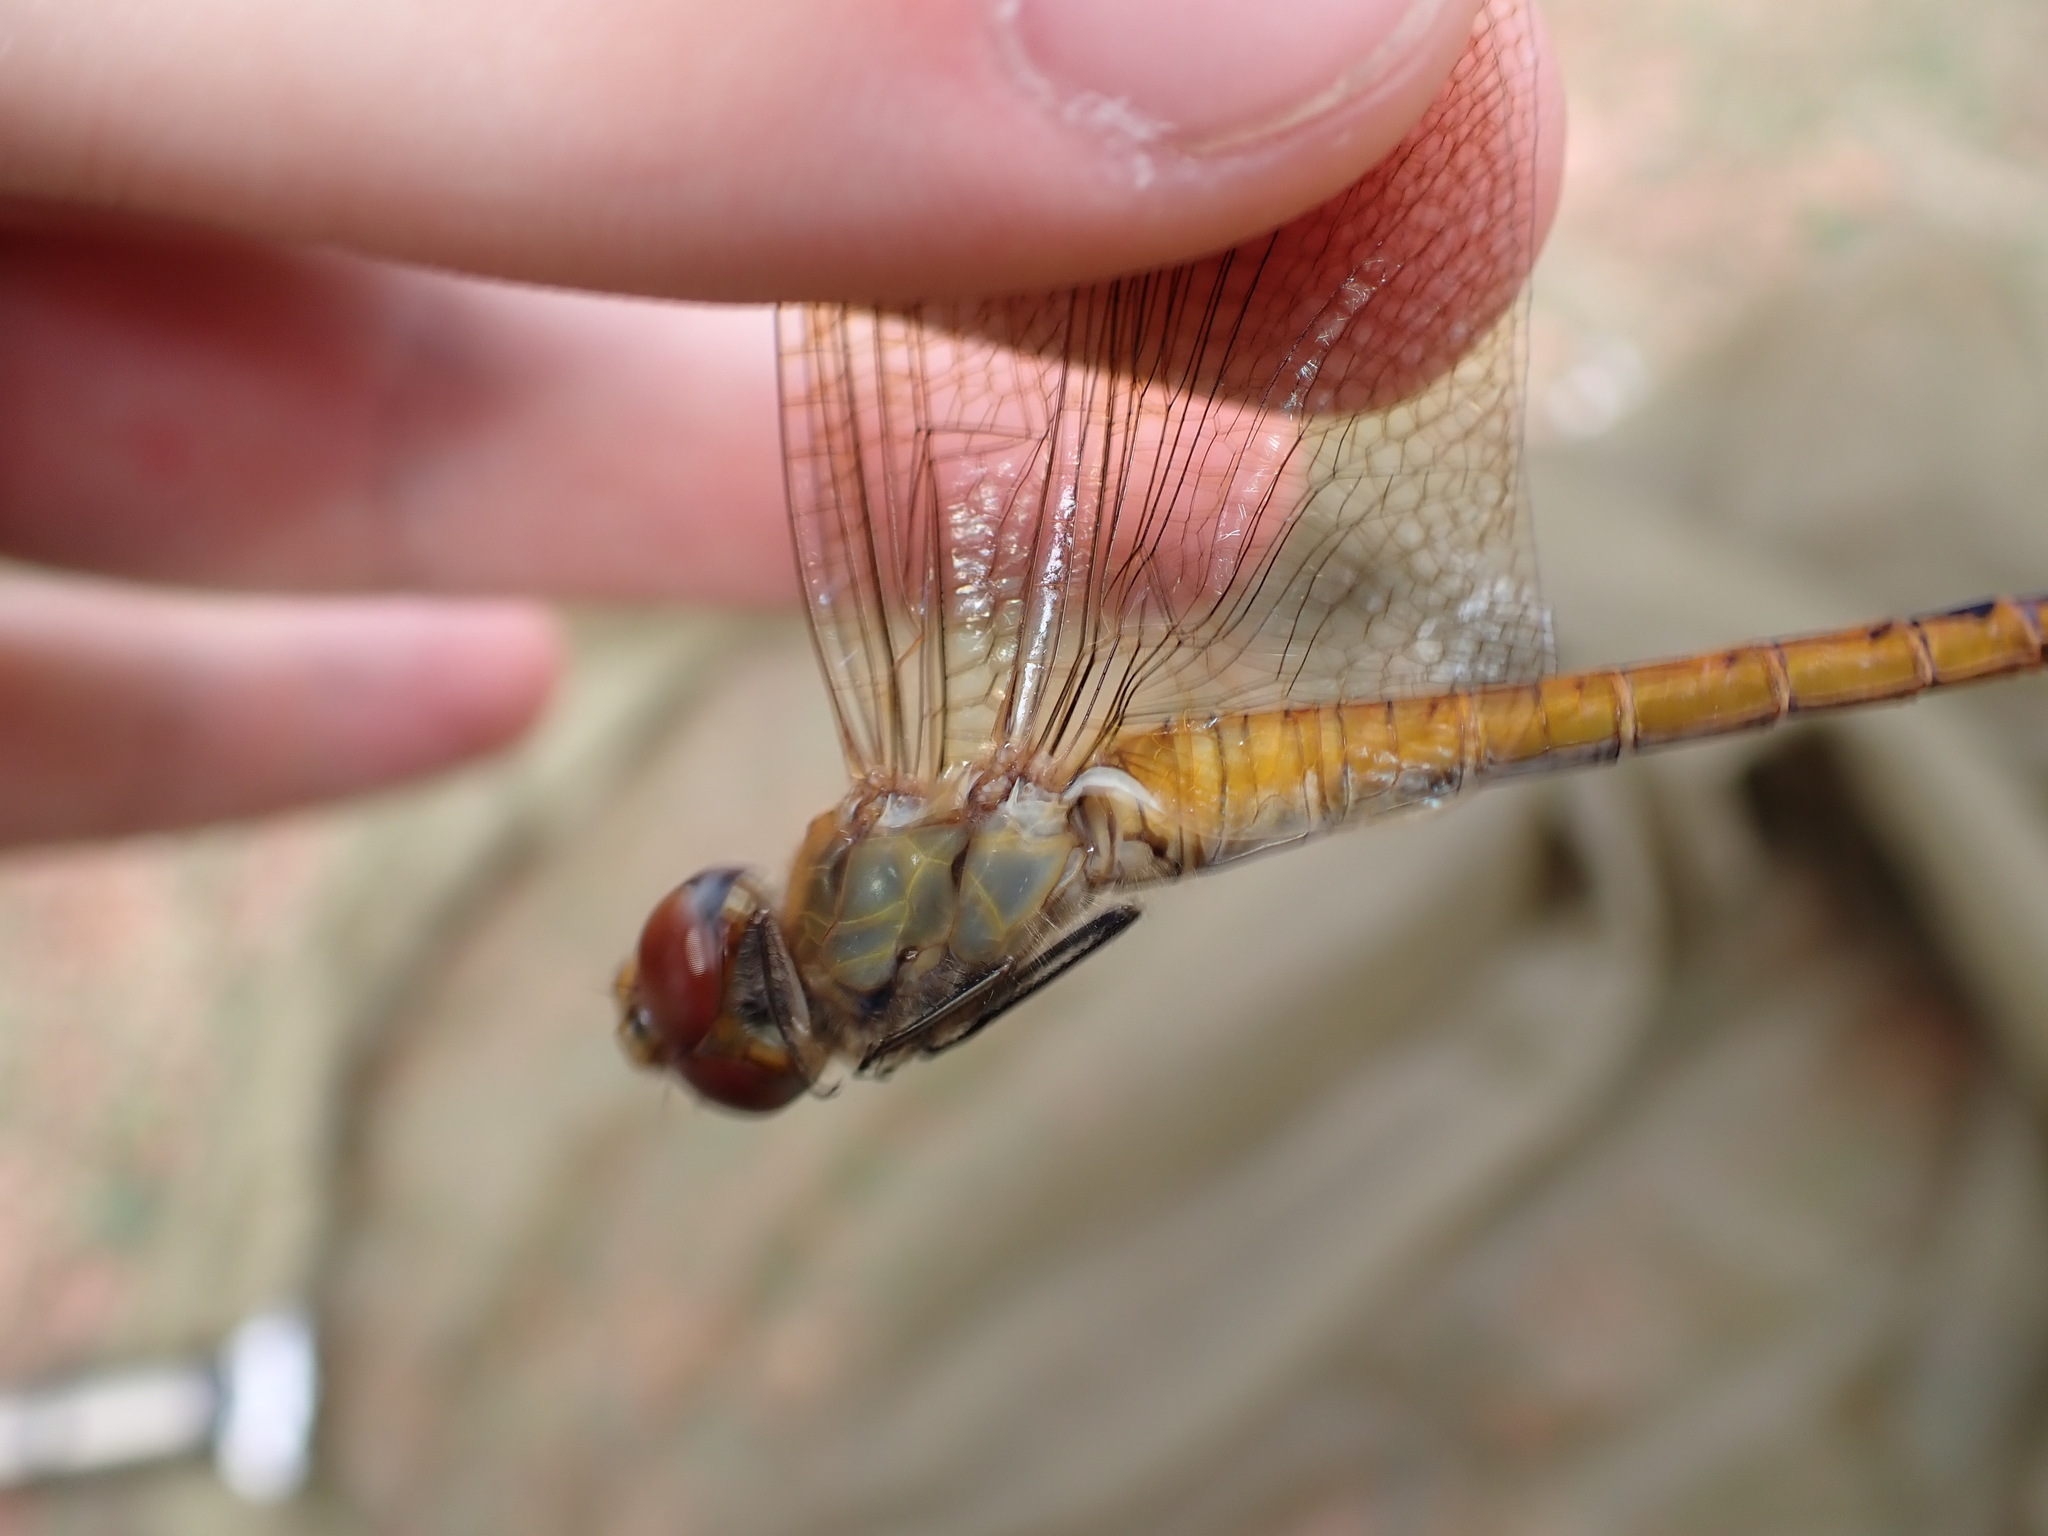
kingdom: Animalia
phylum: Arthropoda
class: Insecta
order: Odonata
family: Libellulidae
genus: Pantala
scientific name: Pantala flavescens
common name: Wandering glider
